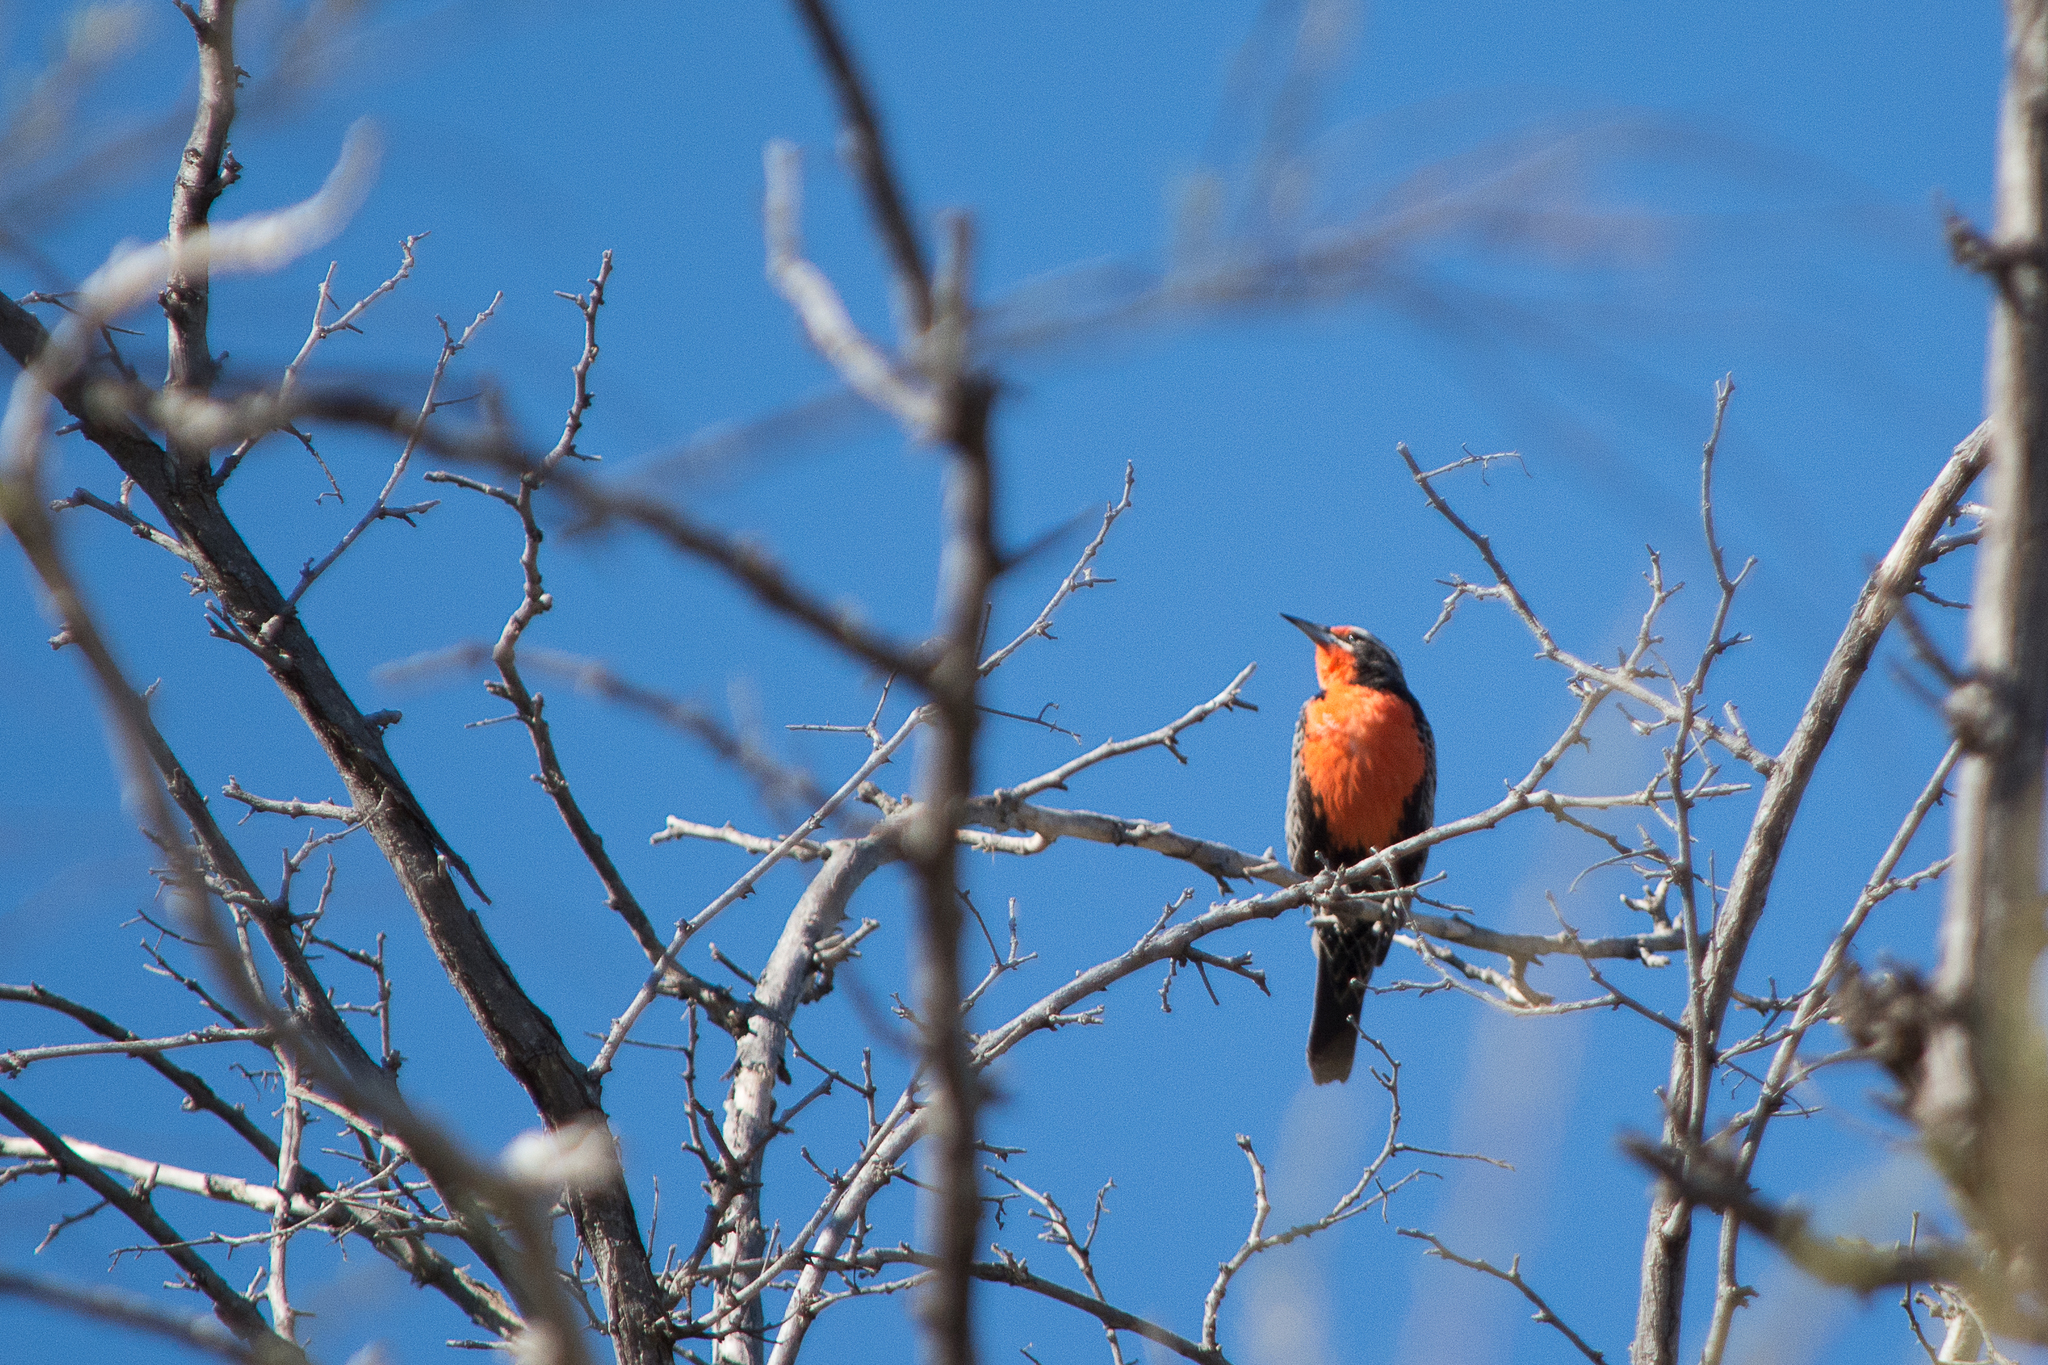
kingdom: Animalia
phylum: Chordata
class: Aves
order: Passeriformes
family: Icteridae
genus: Sturnella
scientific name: Sturnella loyca
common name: Long-tailed meadowlark
